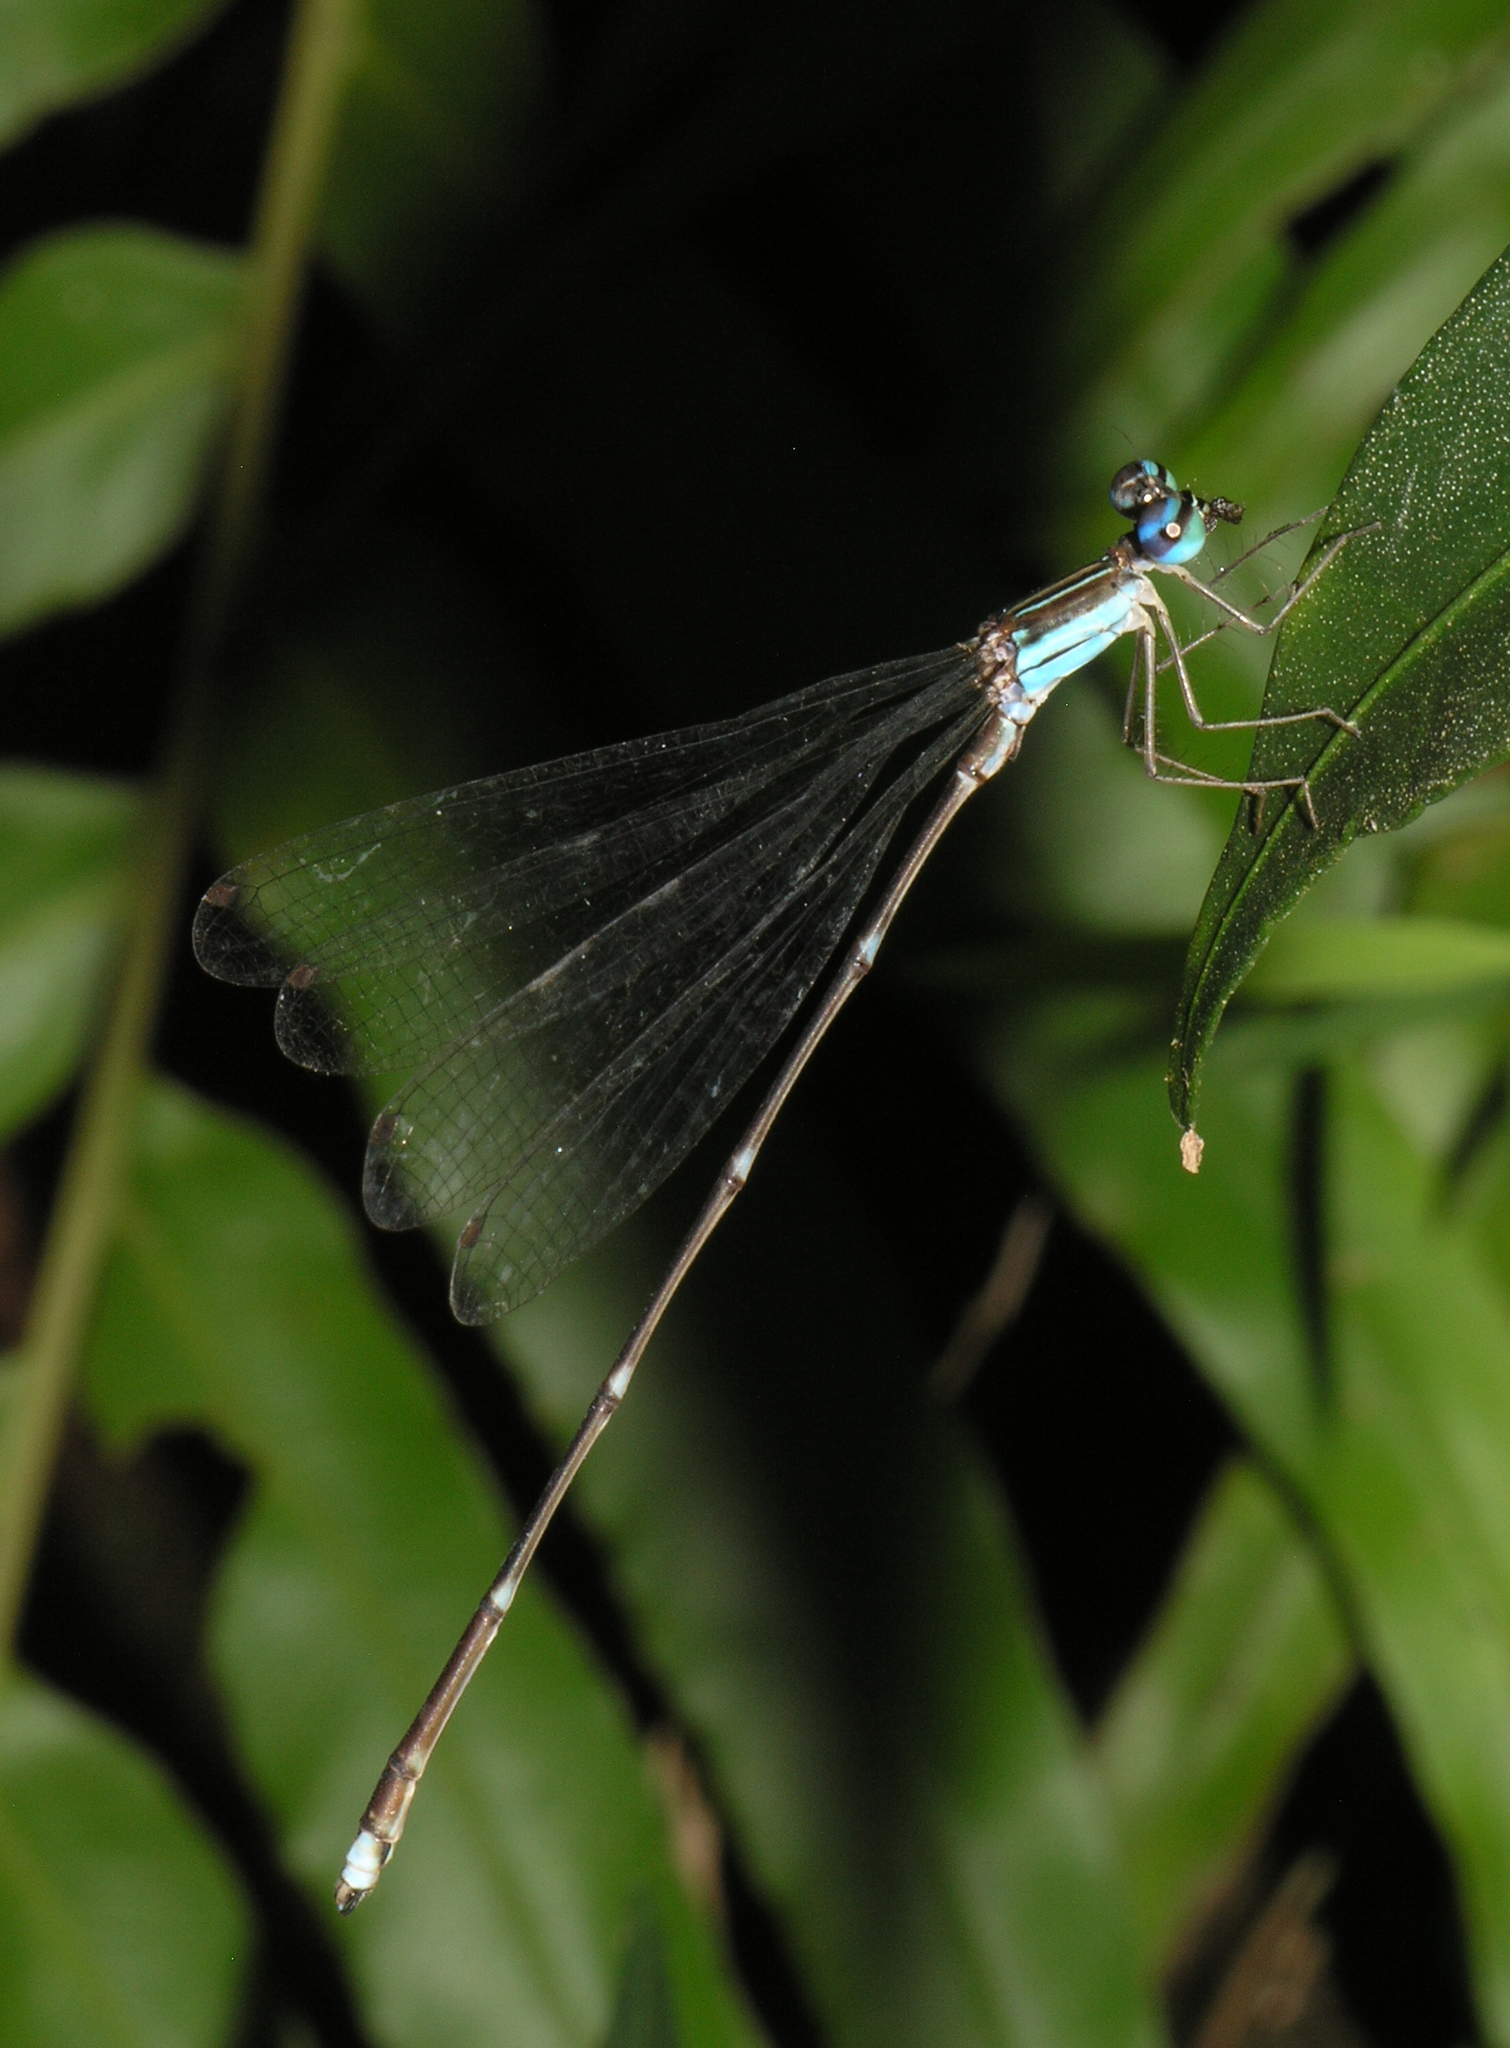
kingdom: Animalia
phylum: Arthropoda
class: Insecta
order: Odonata
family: Platycnemididae
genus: Coeliccia
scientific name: Coeliccia kazukoae
